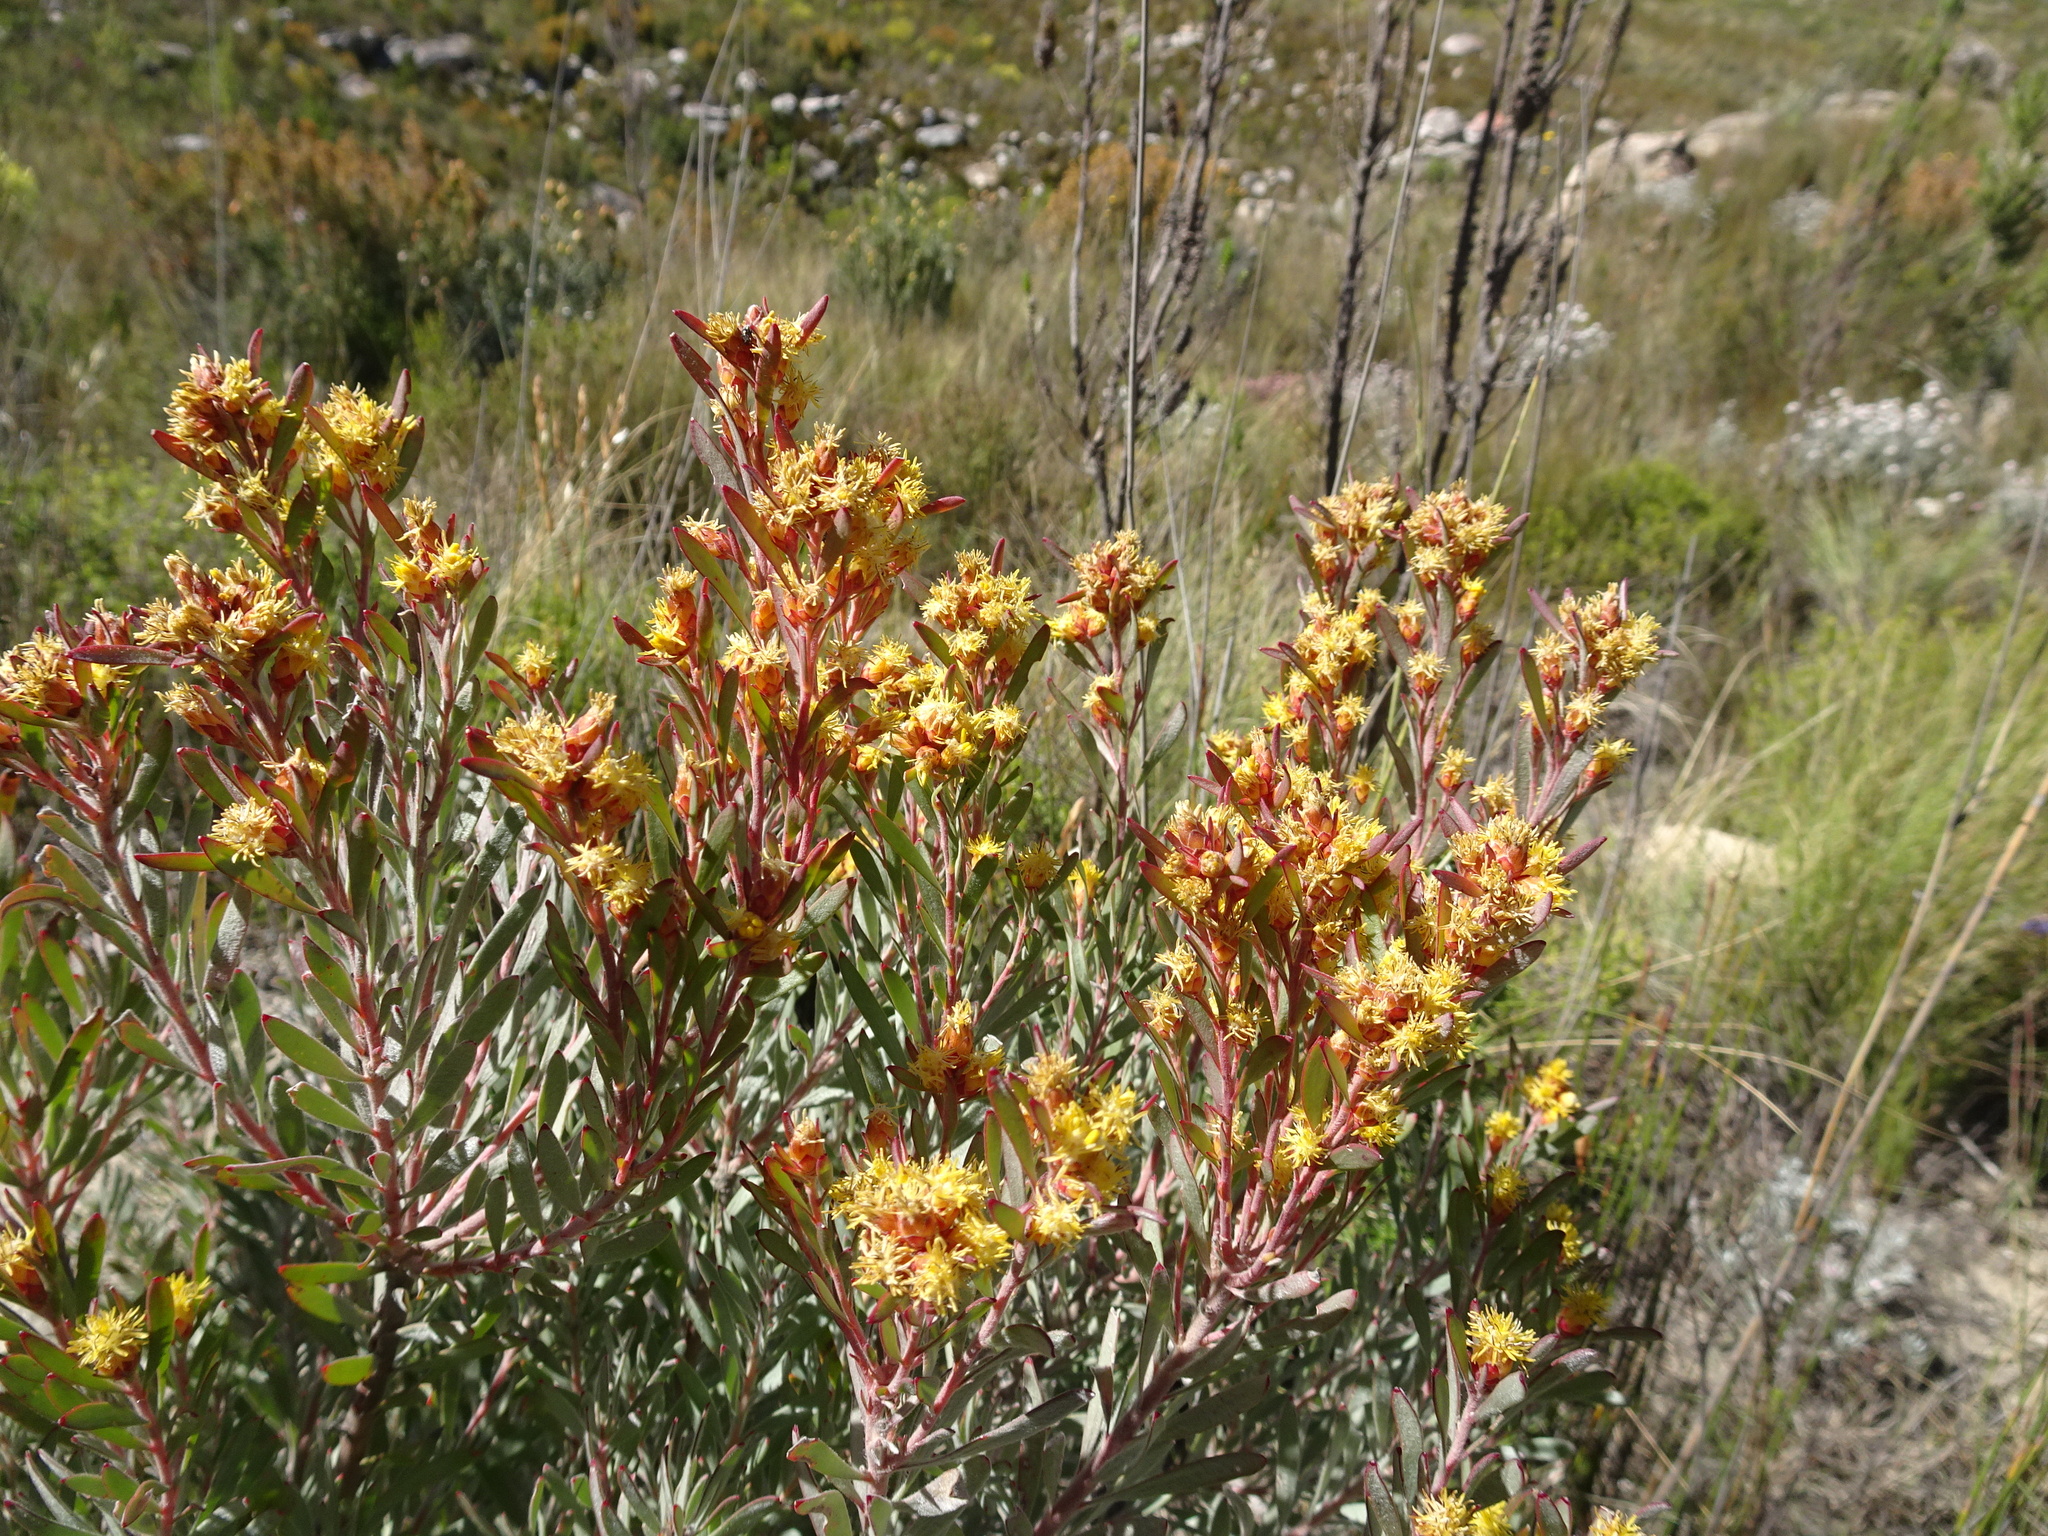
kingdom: Plantae
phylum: Tracheophyta
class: Magnoliopsida
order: Proteales
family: Proteaceae
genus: Leucadendron
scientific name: Leucadendron rubrum
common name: Spinning top
